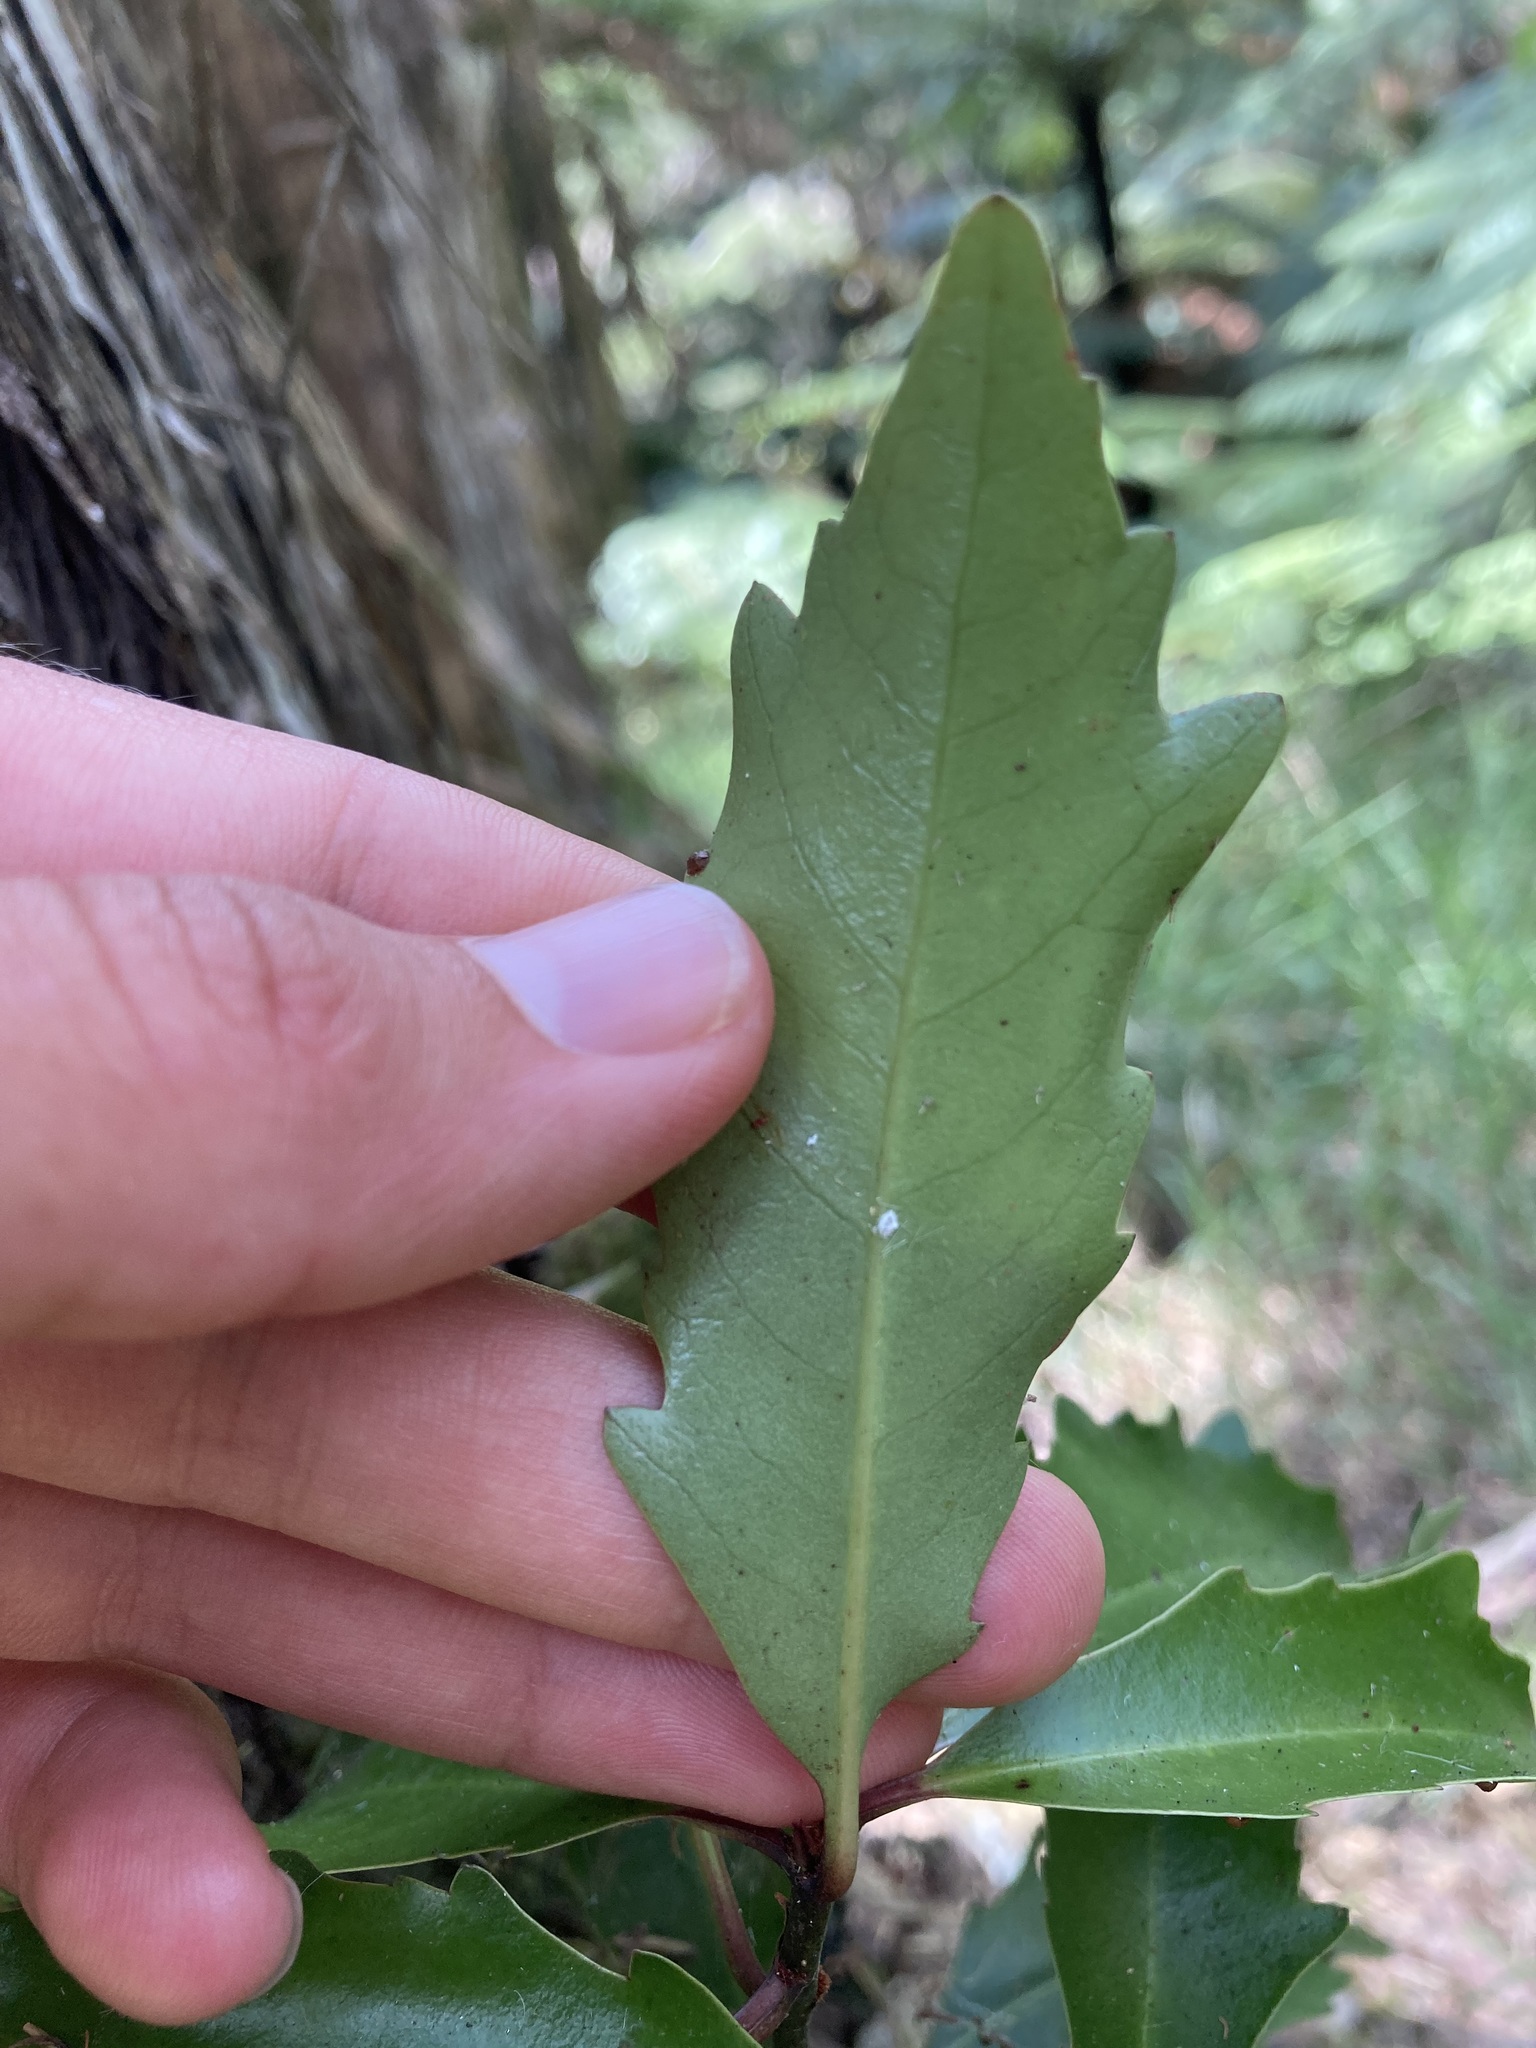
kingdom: Plantae
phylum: Tracheophyta
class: Magnoliopsida
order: Asterales
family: Alseuosmiaceae
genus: Alseuosmia
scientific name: Alseuosmia quercifolia
